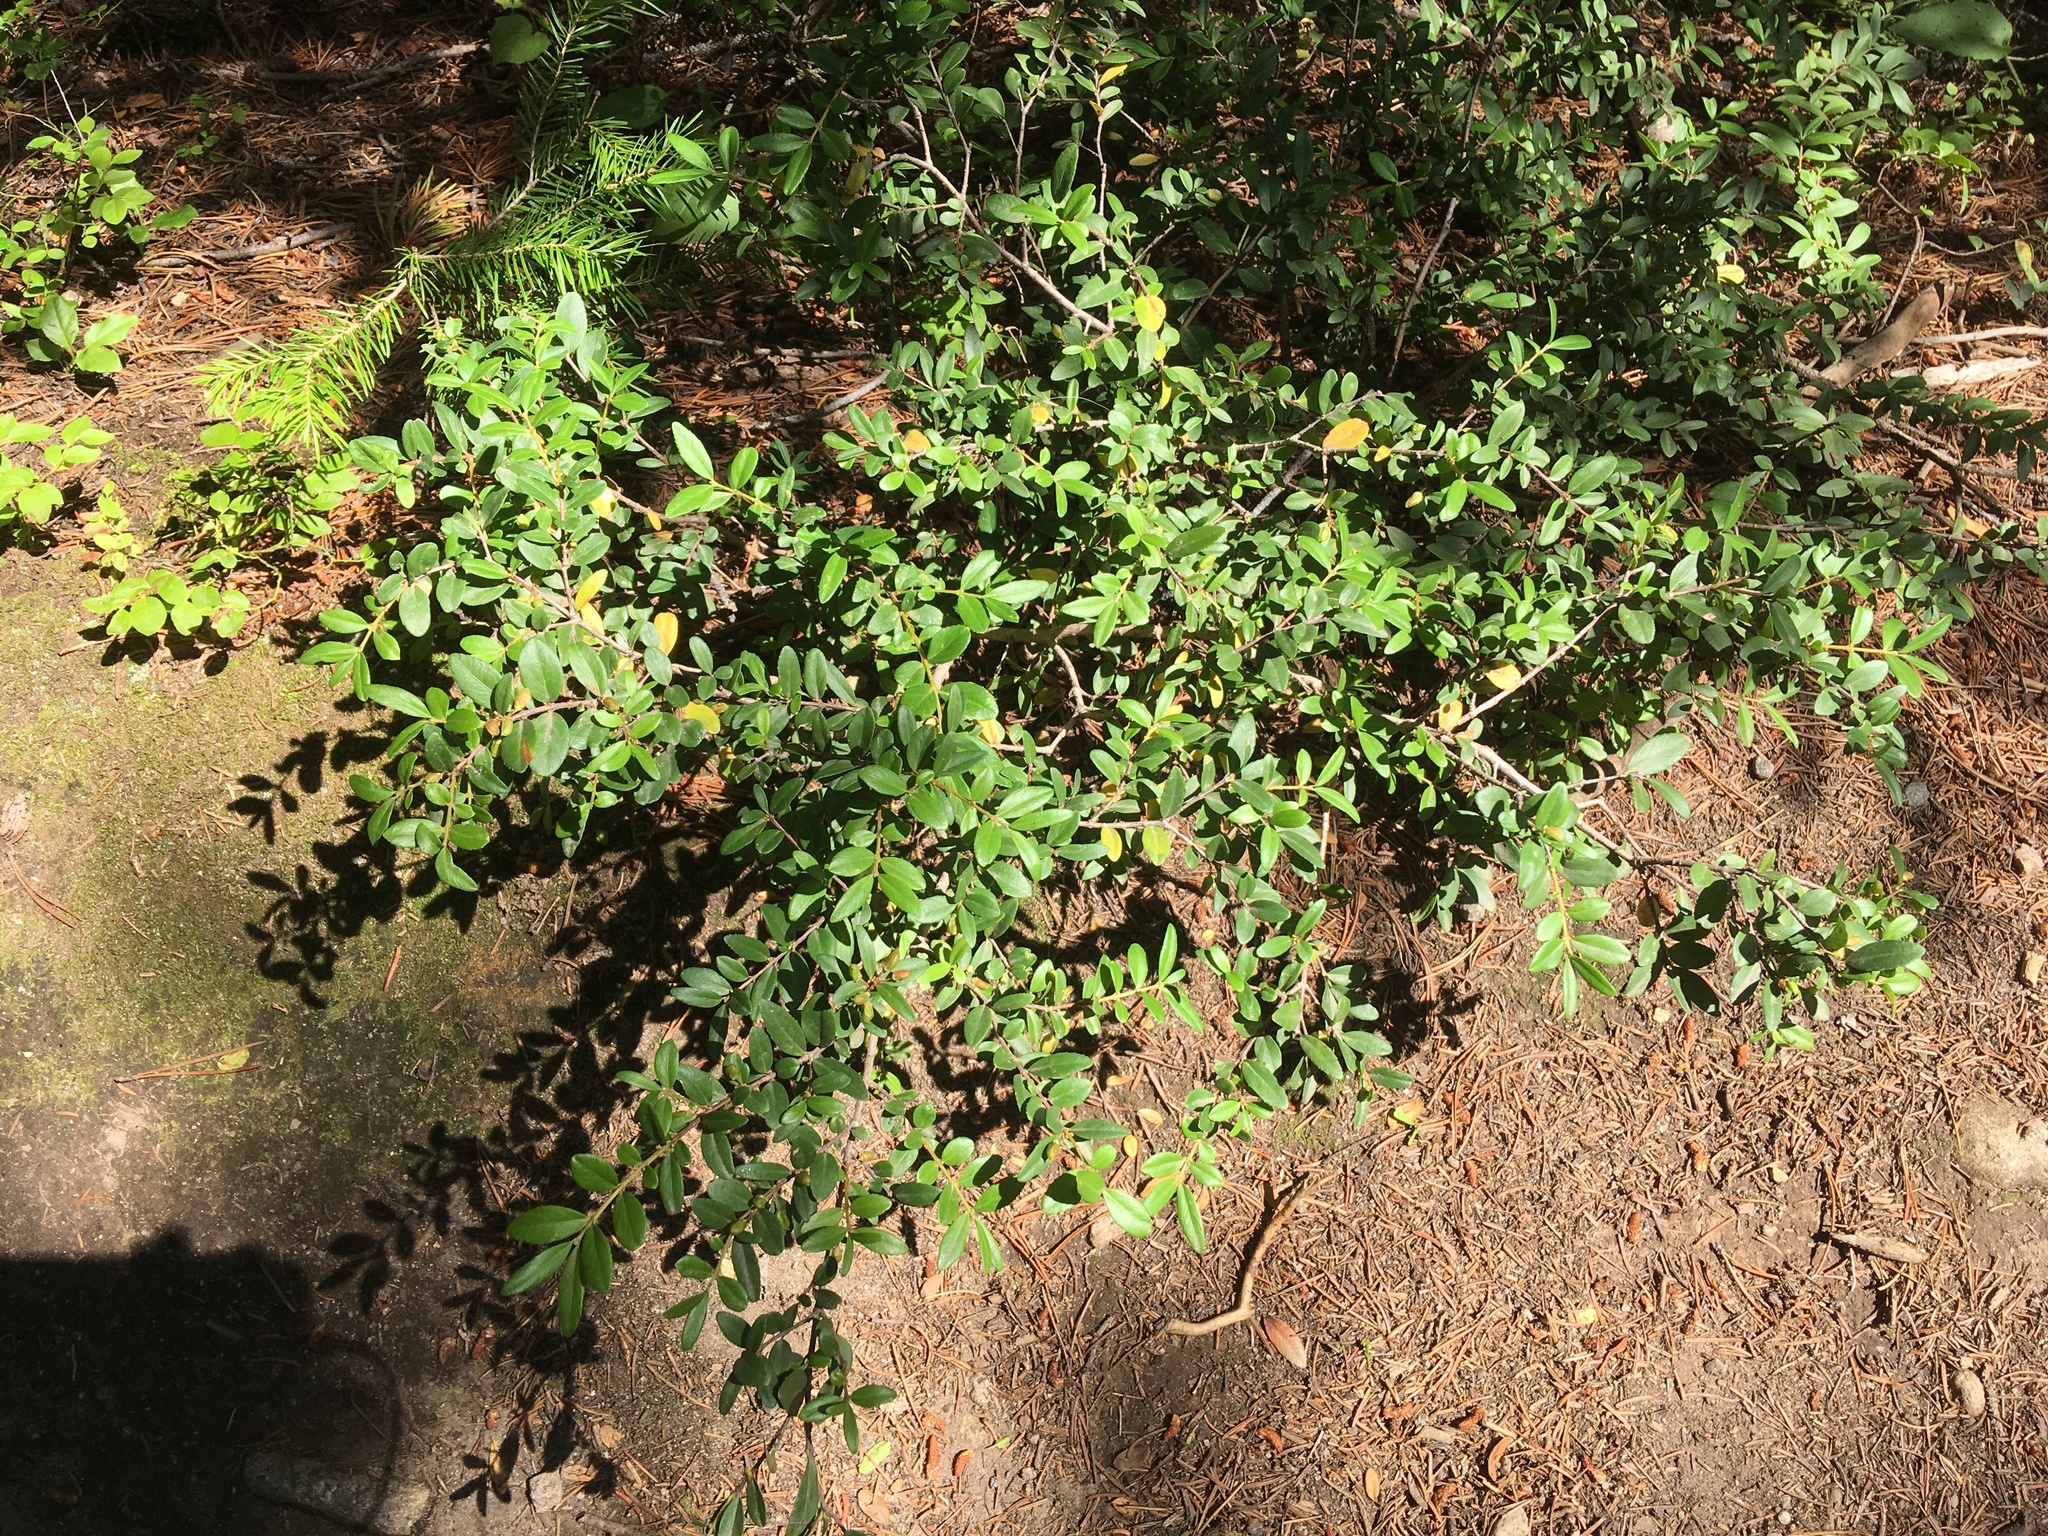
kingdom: Plantae
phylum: Tracheophyta
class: Magnoliopsida
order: Celastrales
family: Celastraceae
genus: Paxistima
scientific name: Paxistima myrsinites
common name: Mountain-lover
